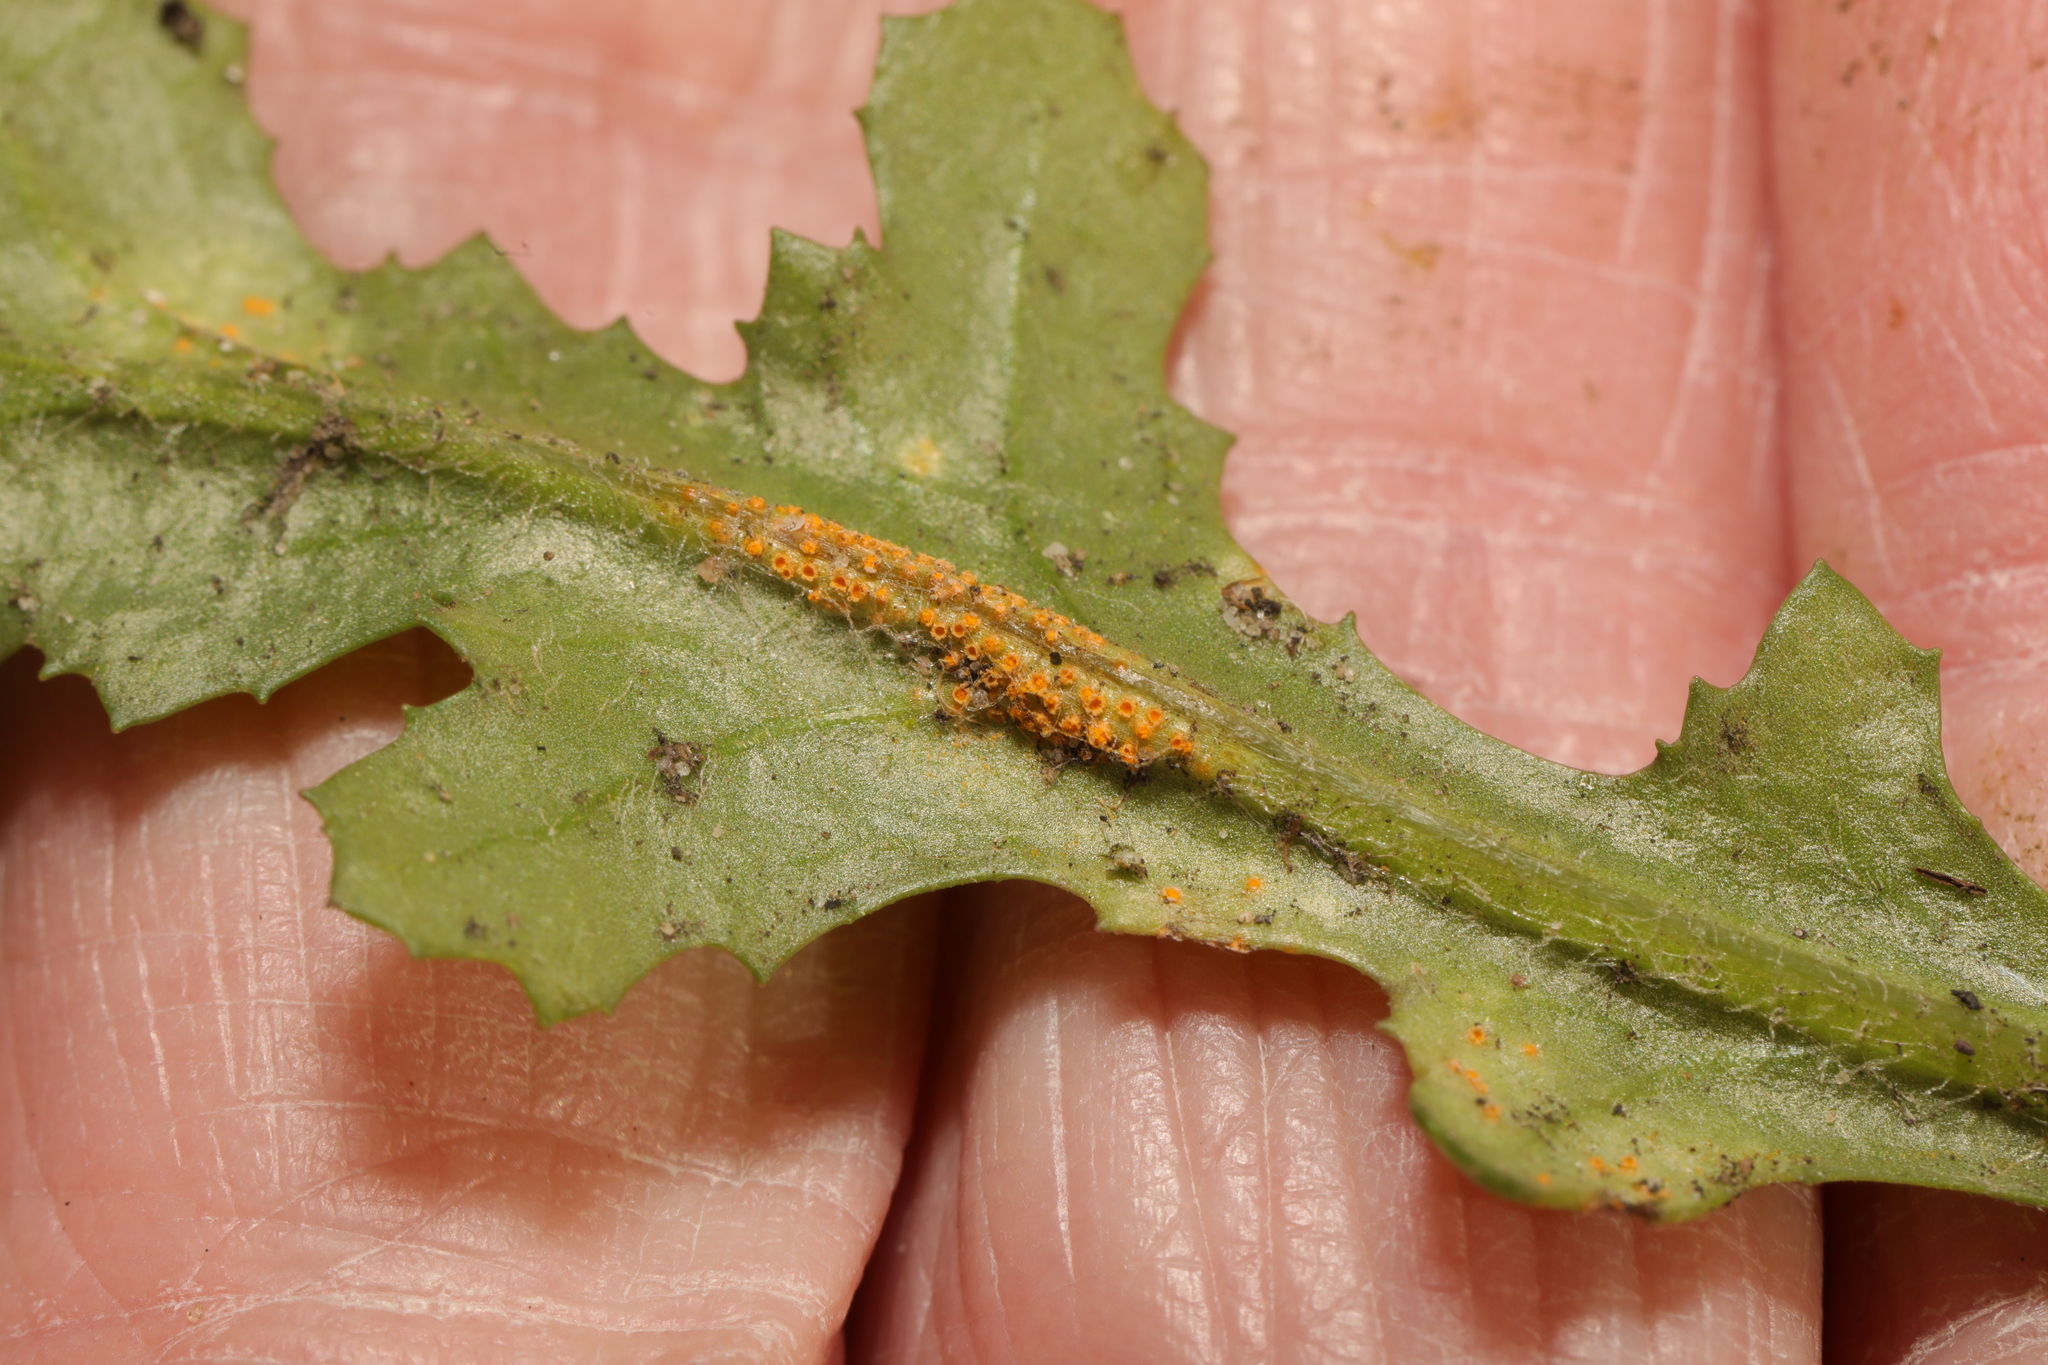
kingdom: Fungi
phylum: Basidiomycota
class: Pucciniomycetes
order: Pucciniales
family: Pucciniaceae
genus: Puccinia
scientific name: Puccinia lagenophorae
